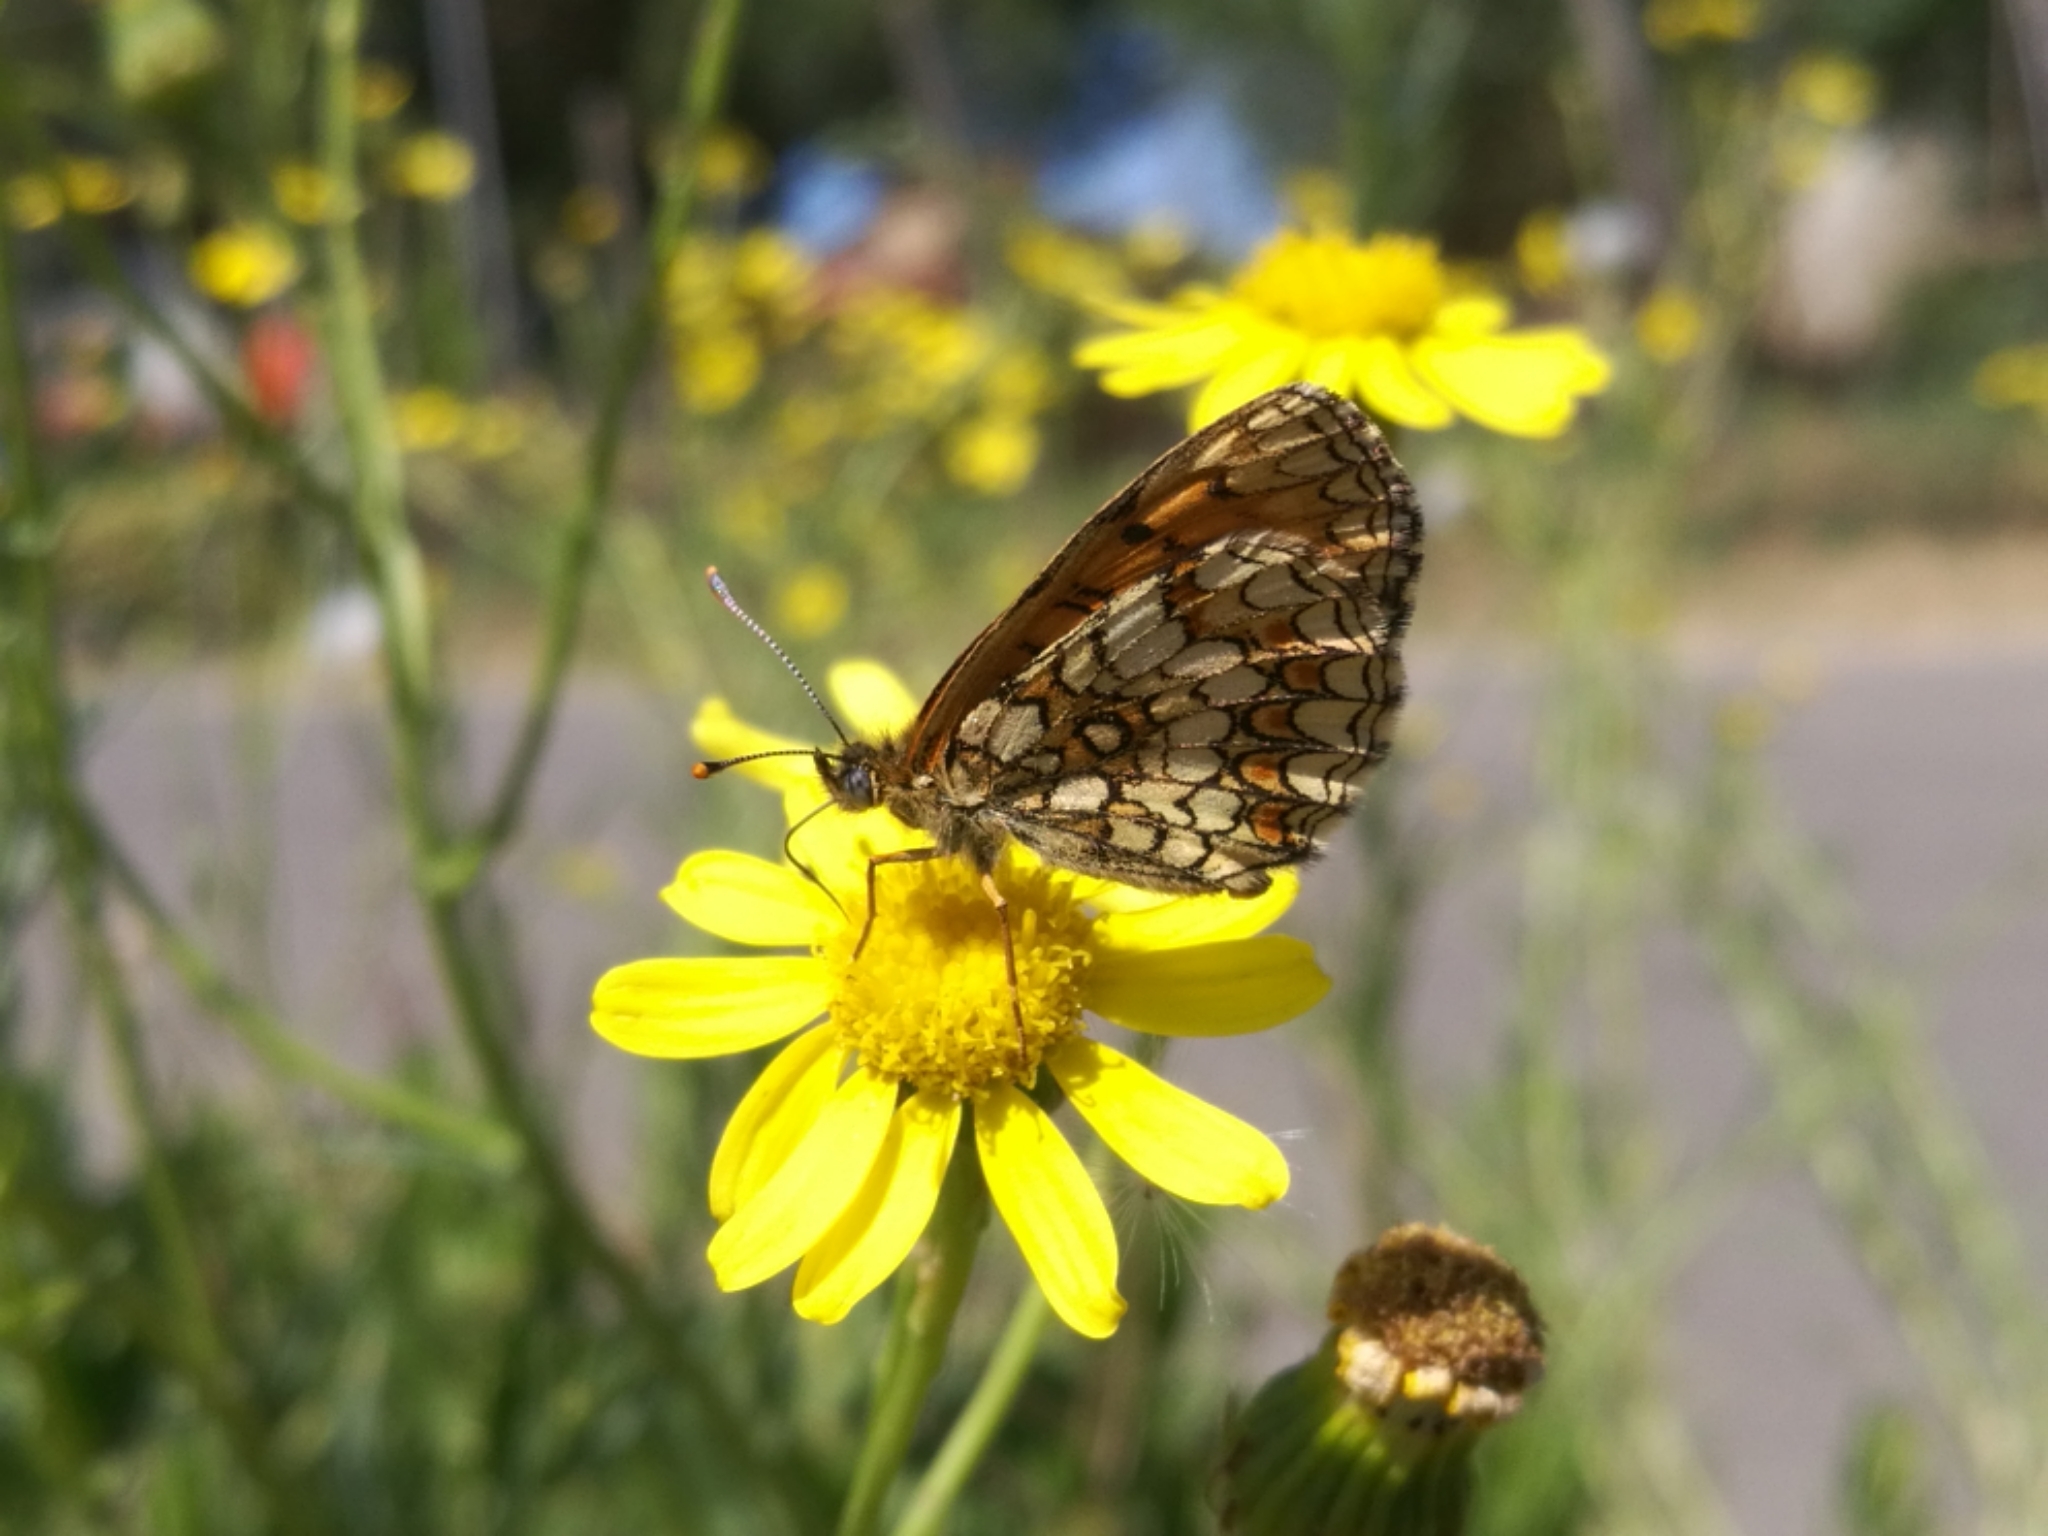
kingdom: Animalia
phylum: Arthropoda
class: Insecta
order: Lepidoptera
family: Nymphalidae
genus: Mellicta
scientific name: Mellicta athalia
